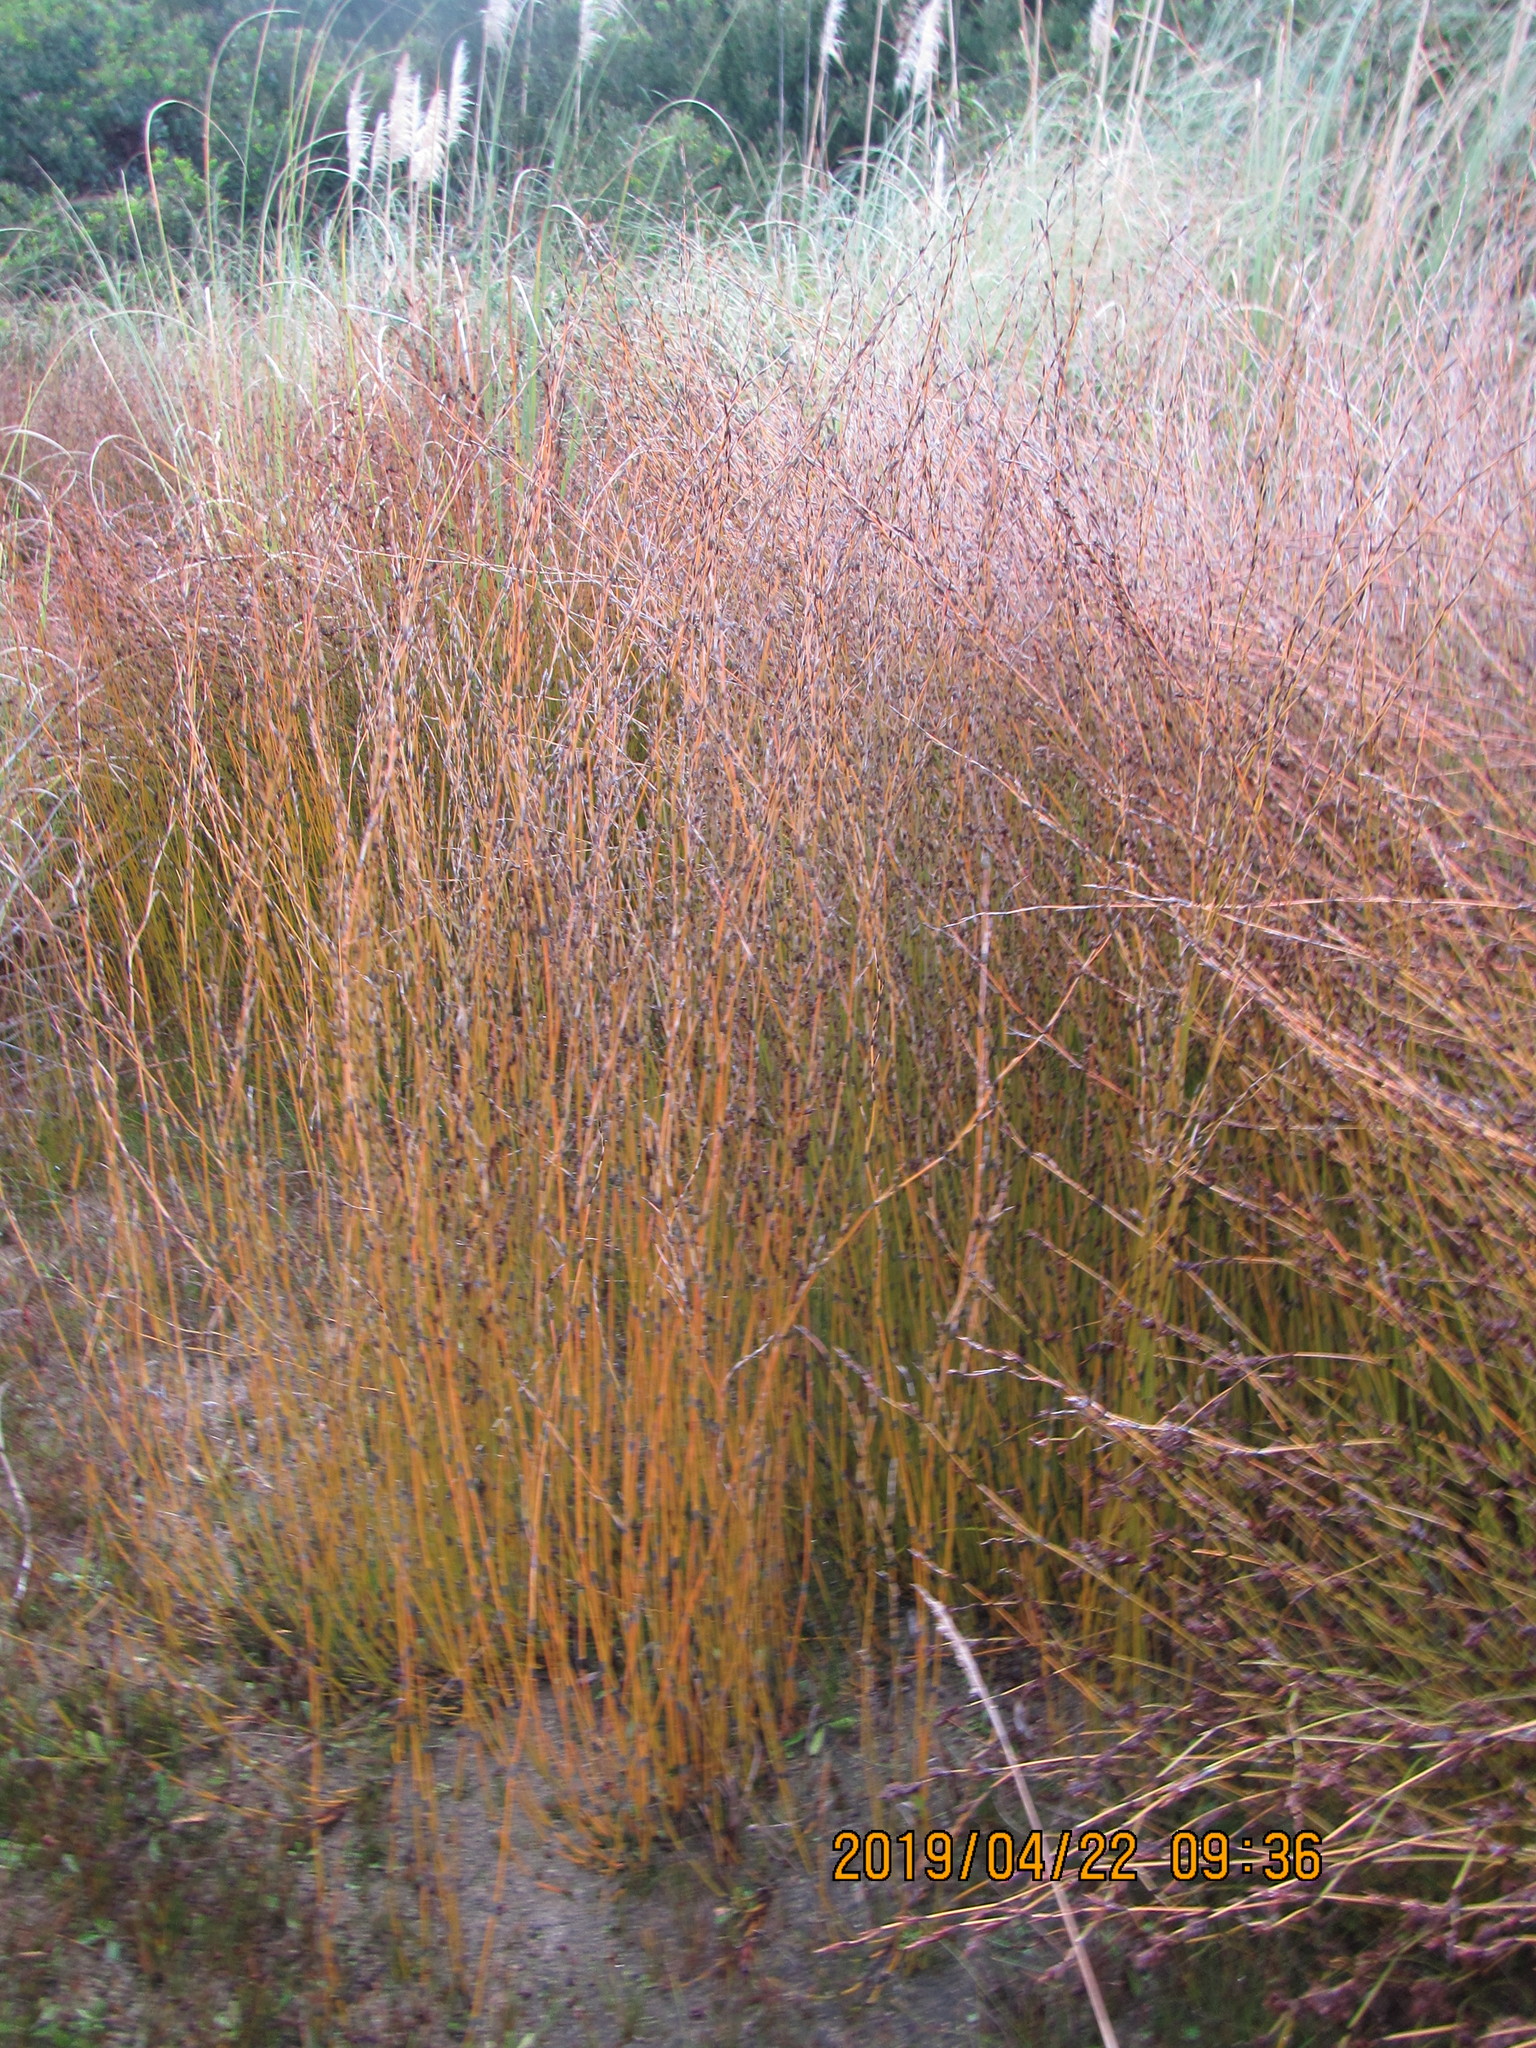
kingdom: Plantae
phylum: Tracheophyta
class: Liliopsida
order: Poales
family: Restionaceae
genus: Apodasmia
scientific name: Apodasmia similis
